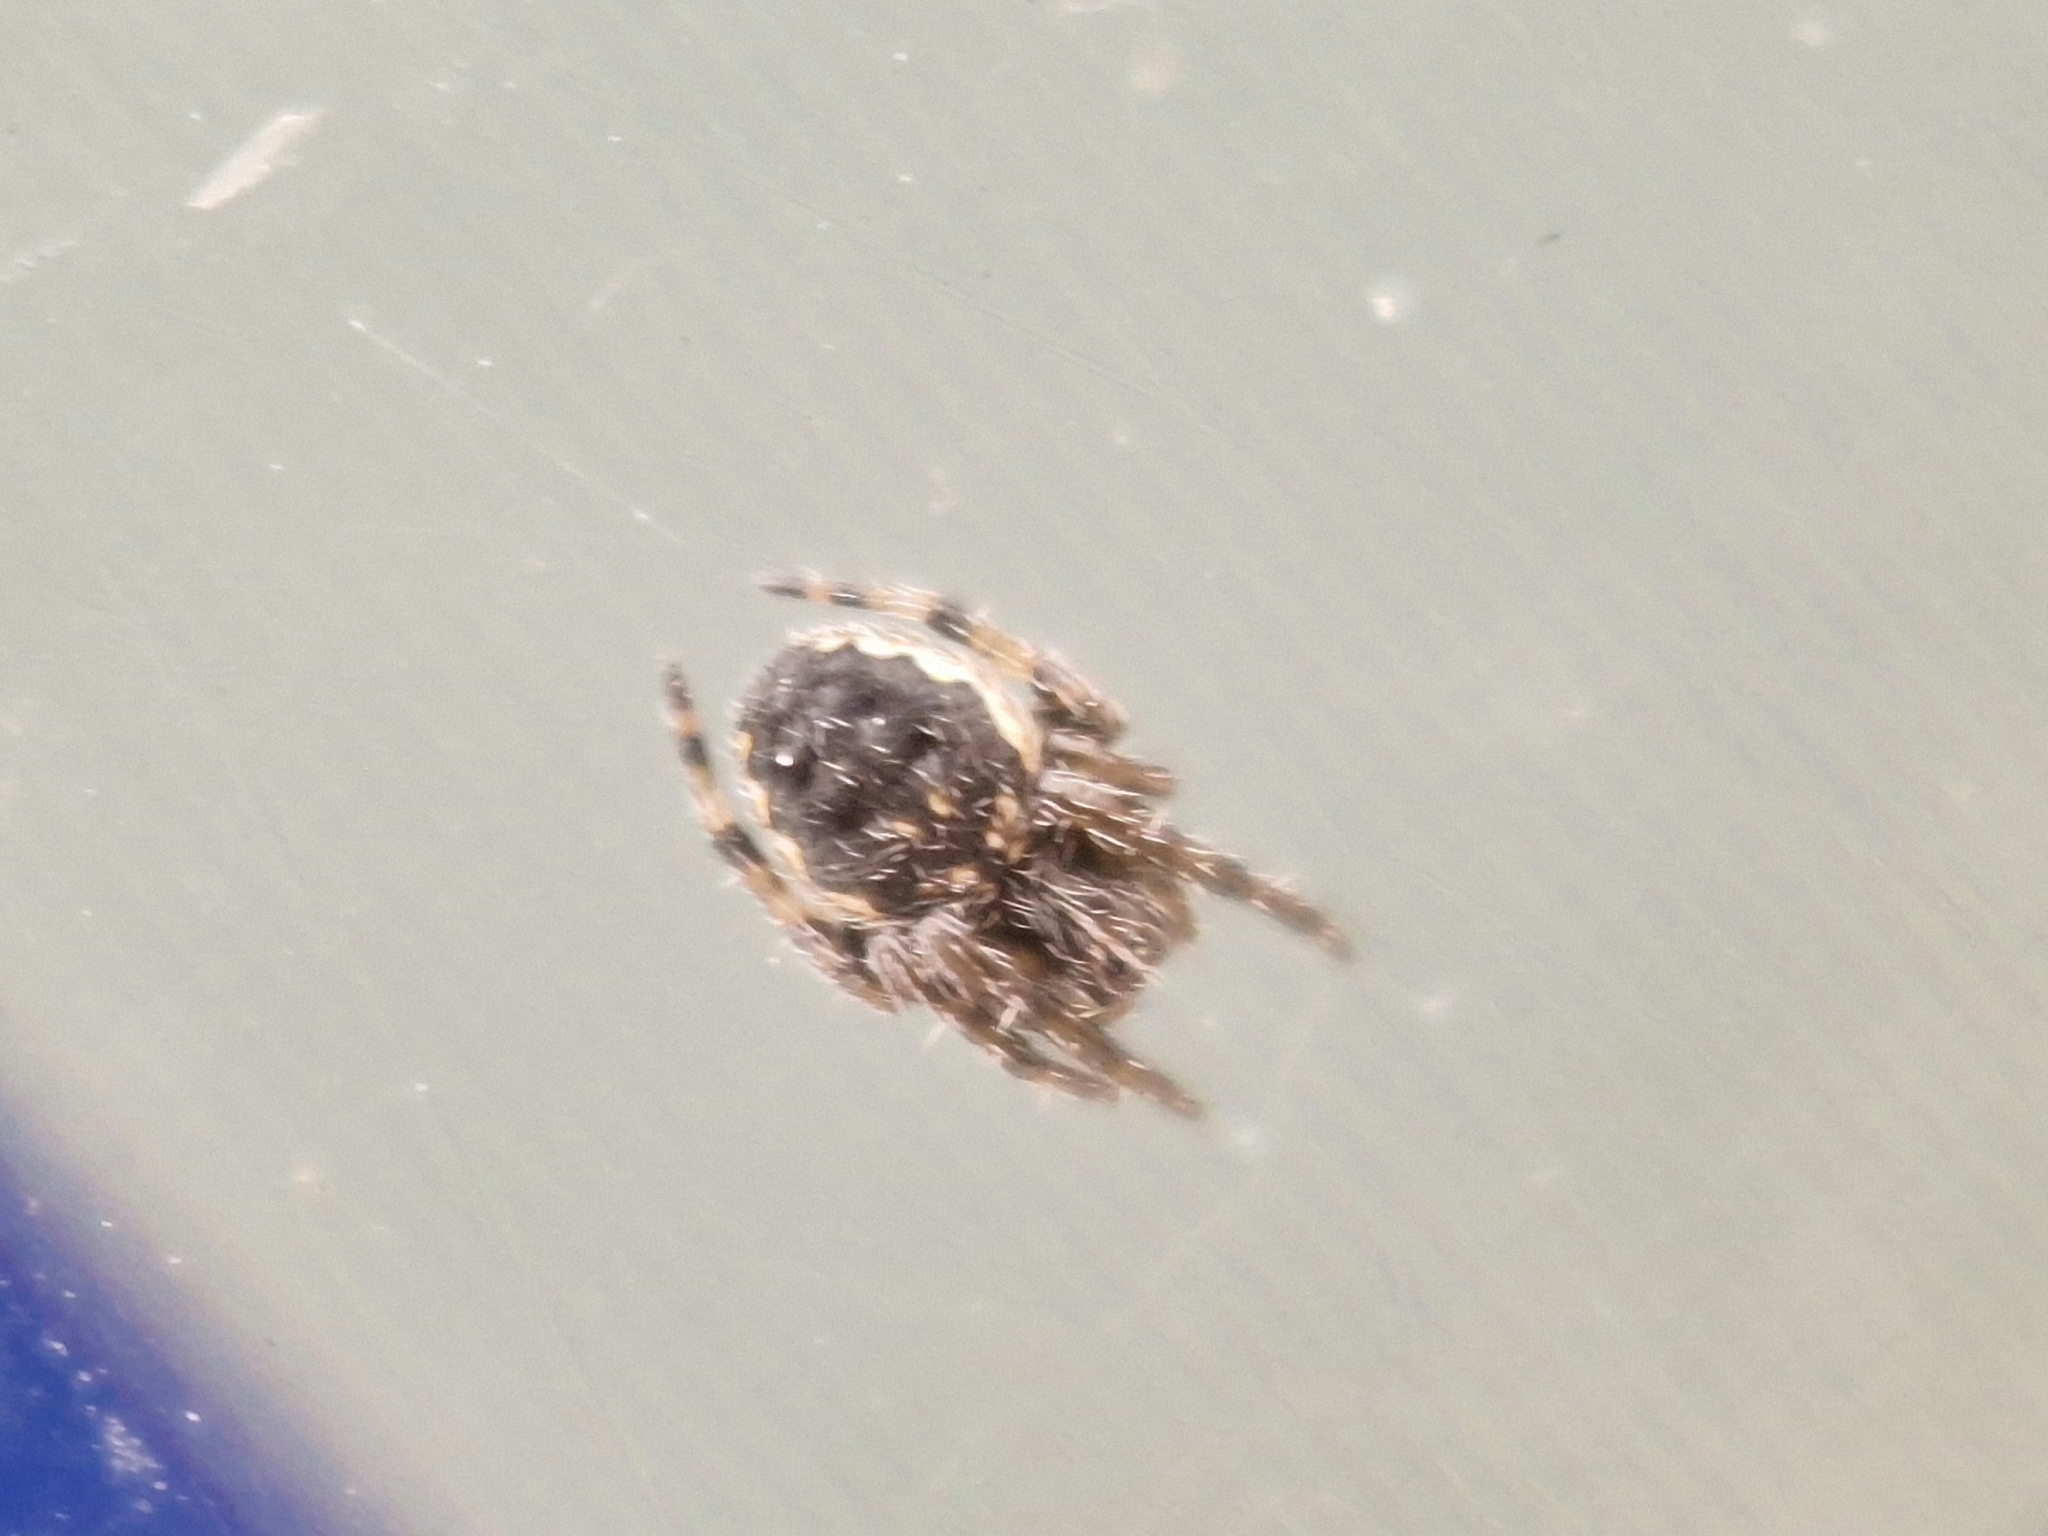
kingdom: Animalia
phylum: Arthropoda
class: Arachnida
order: Araneae
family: Araneidae
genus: Nuctenea
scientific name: Nuctenea umbratica
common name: Toad spider
